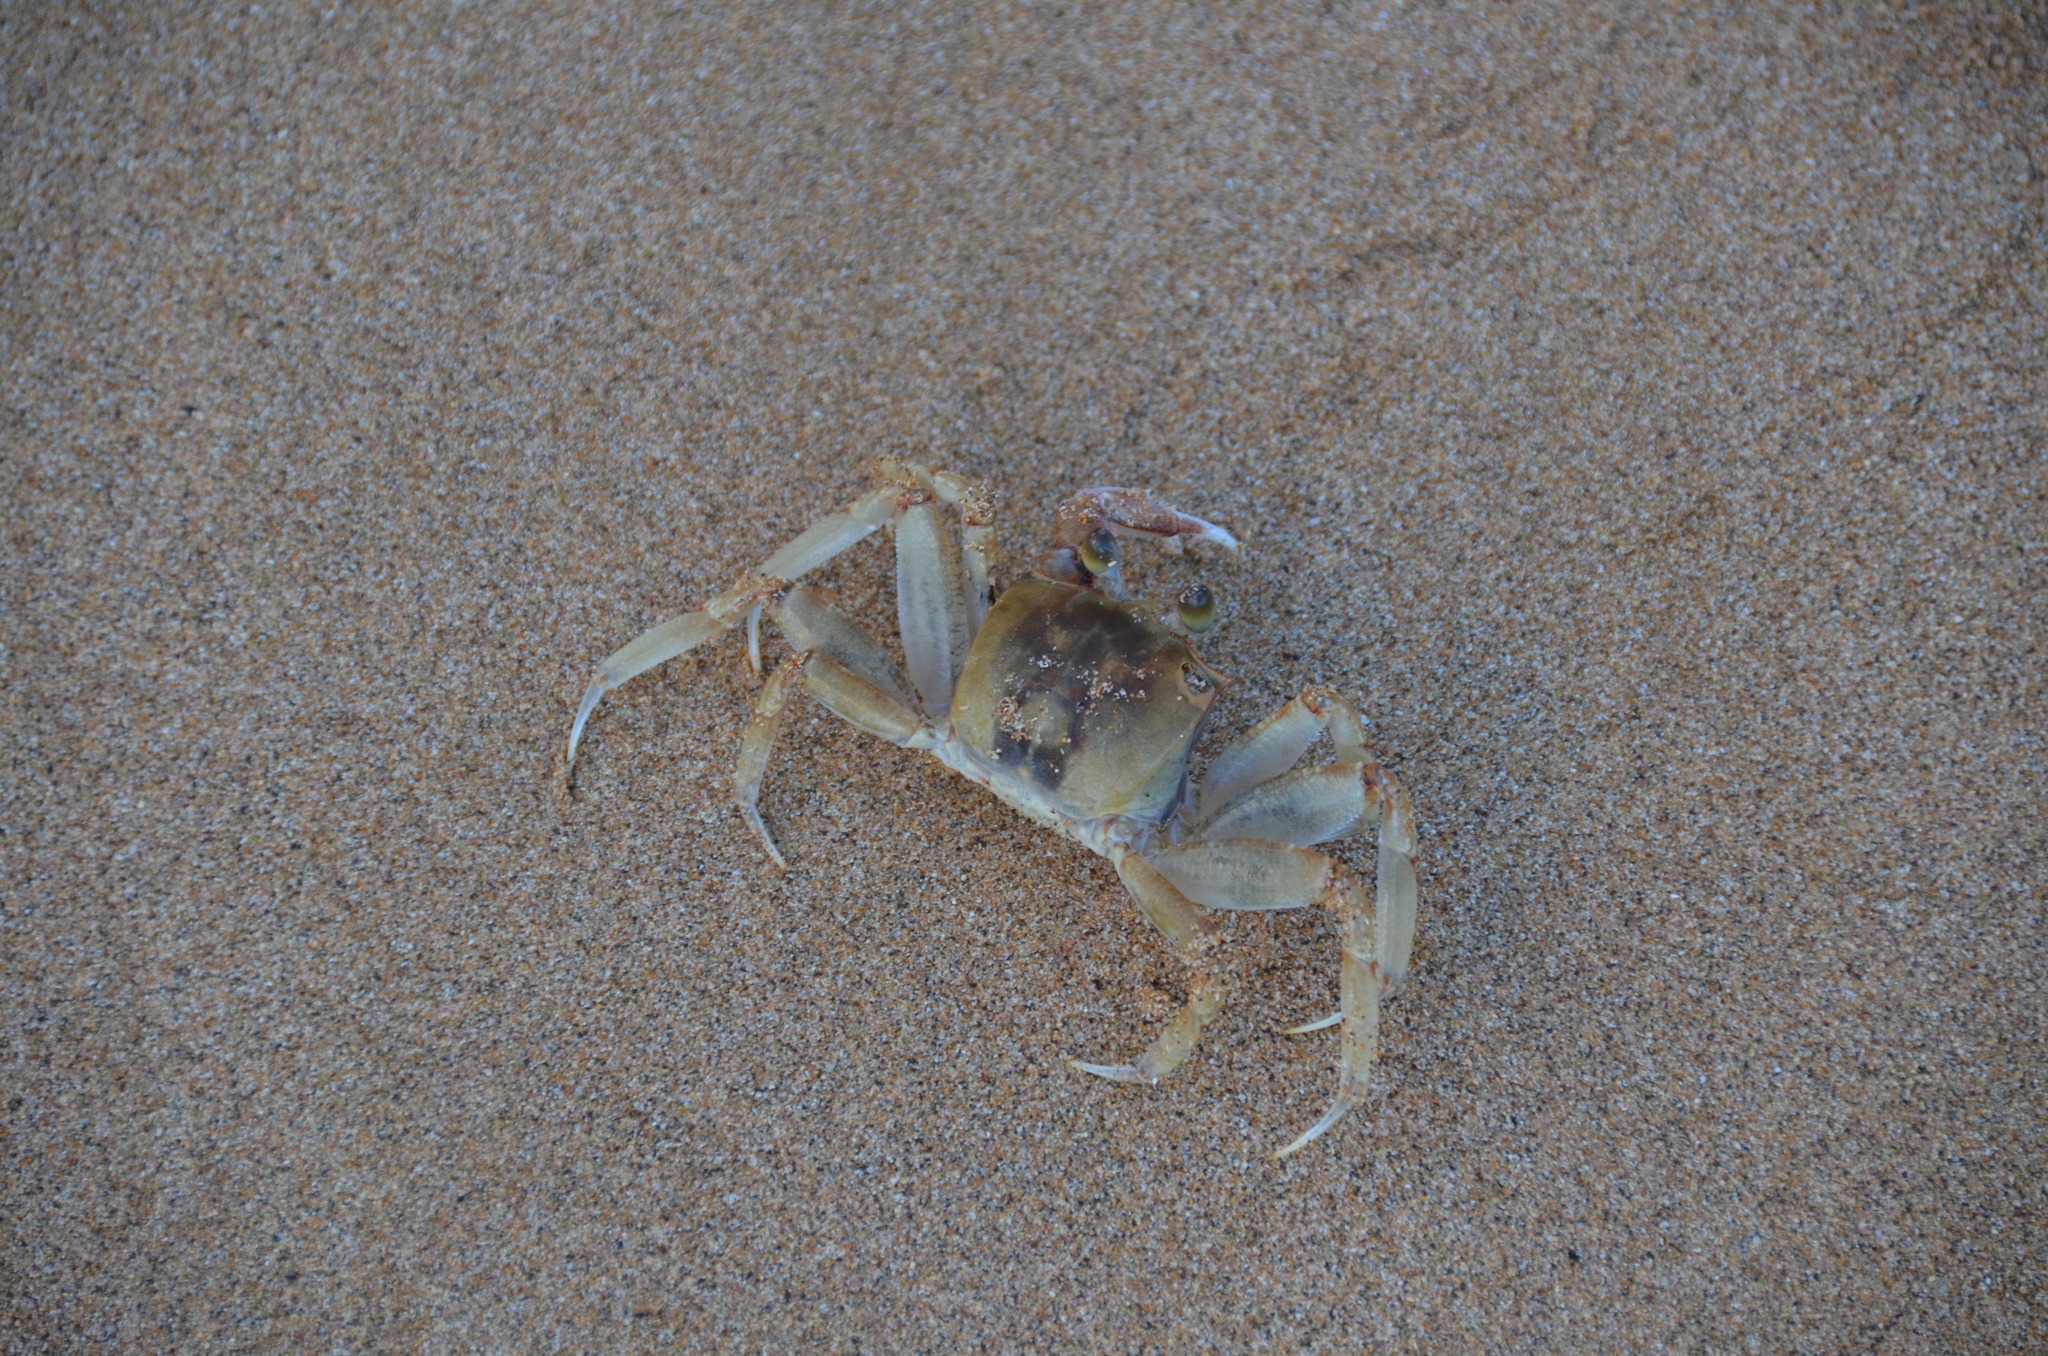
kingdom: Animalia
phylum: Arthropoda
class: Malacostraca
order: Decapoda
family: Ocypodidae
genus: Ocypode
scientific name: Ocypode pallidula
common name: Pallid ghost crab
